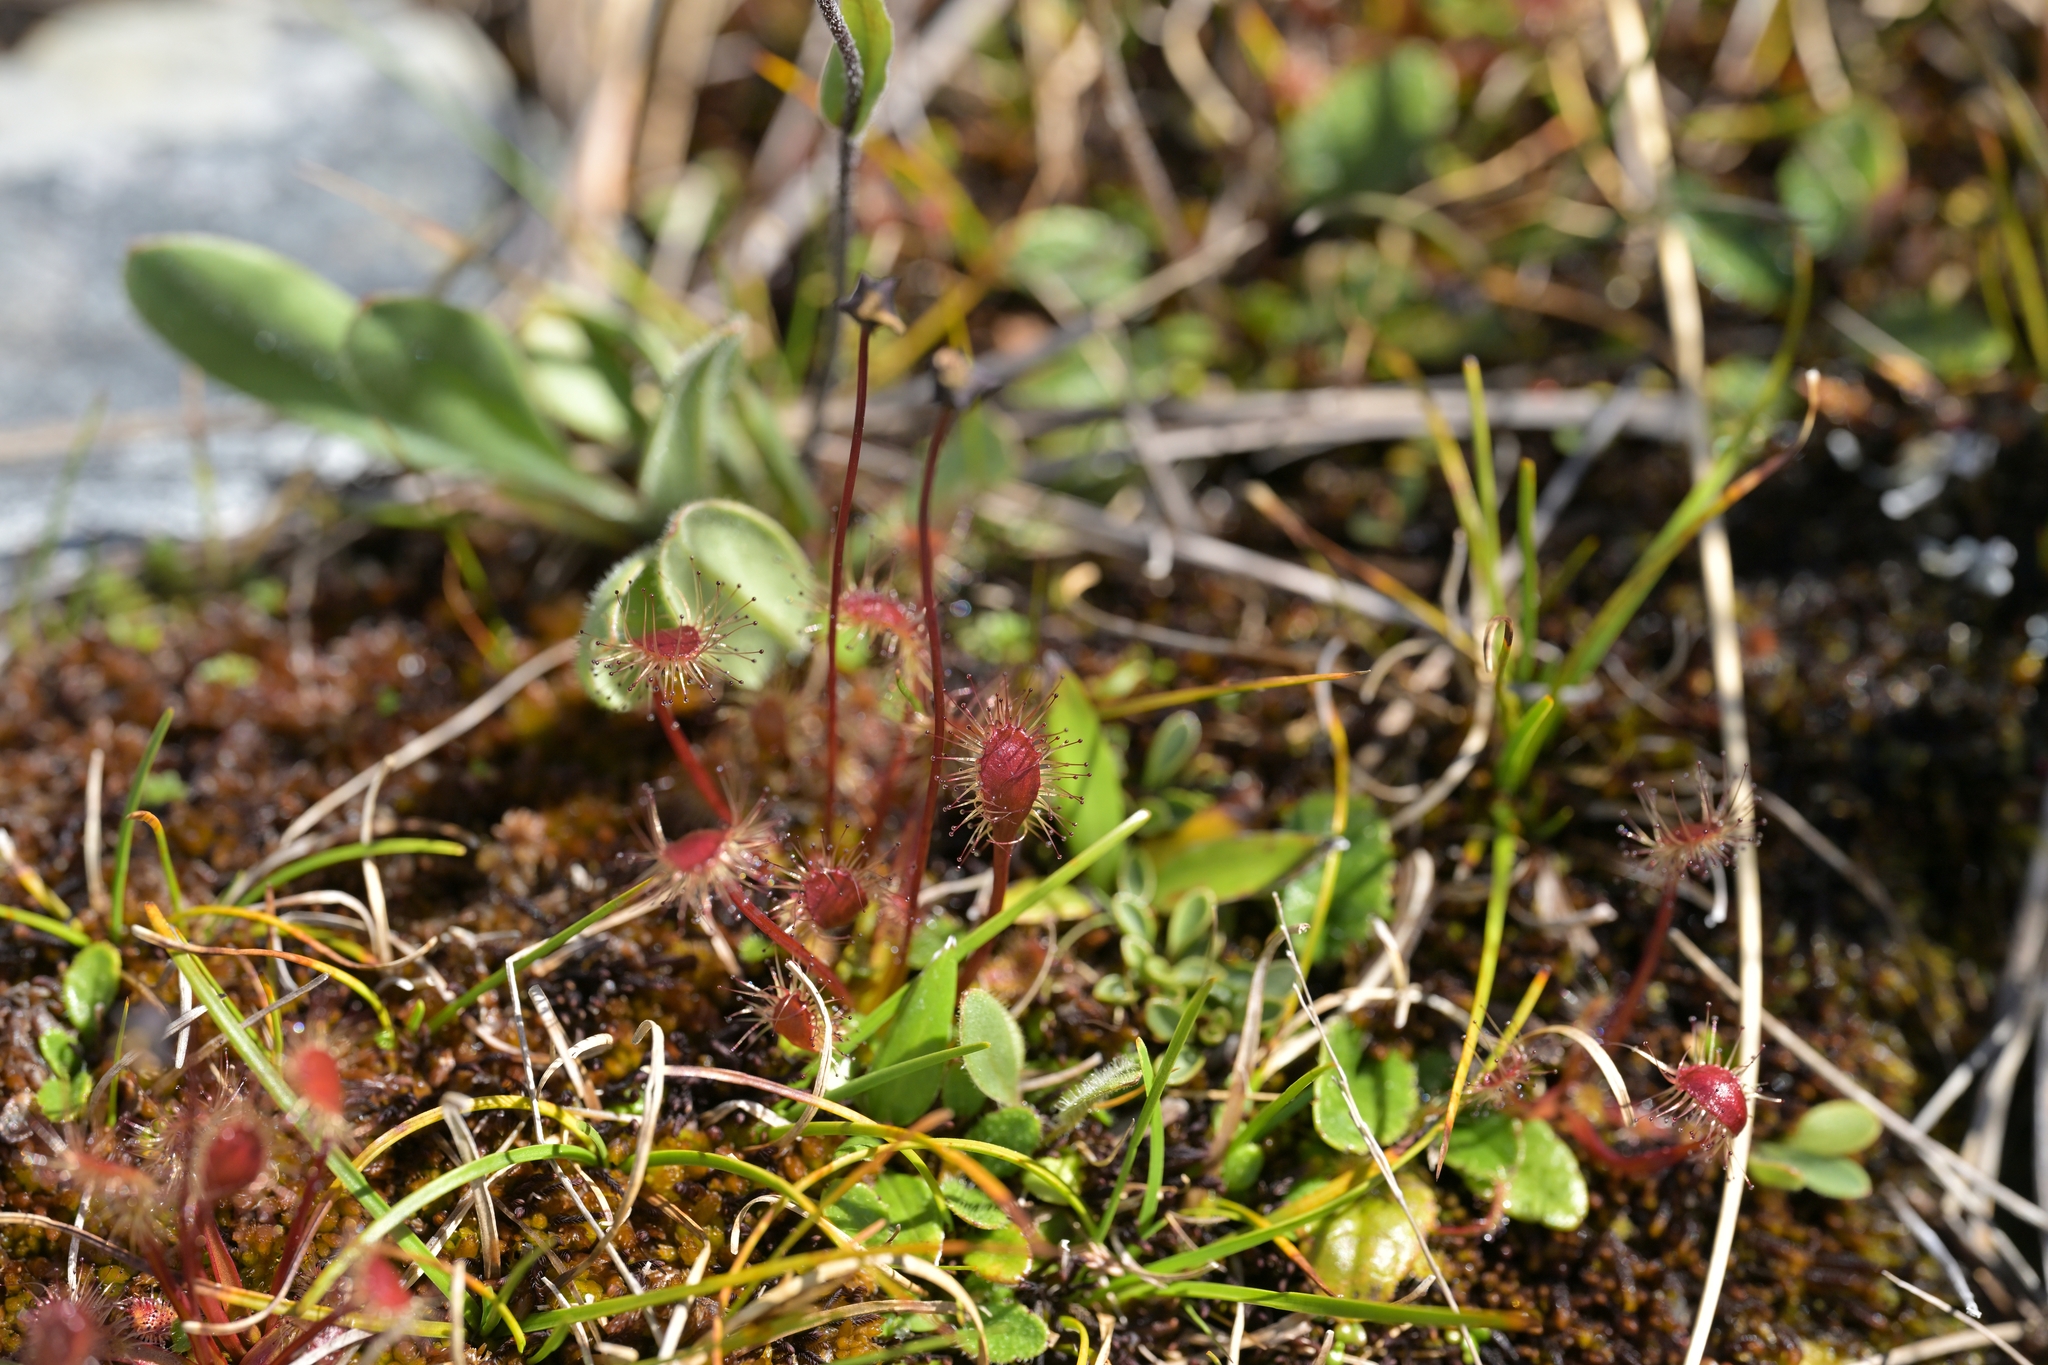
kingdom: Plantae
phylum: Tracheophyta
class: Magnoliopsida
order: Caryophyllales
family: Droseraceae
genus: Drosera
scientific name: Drosera stenopetala
